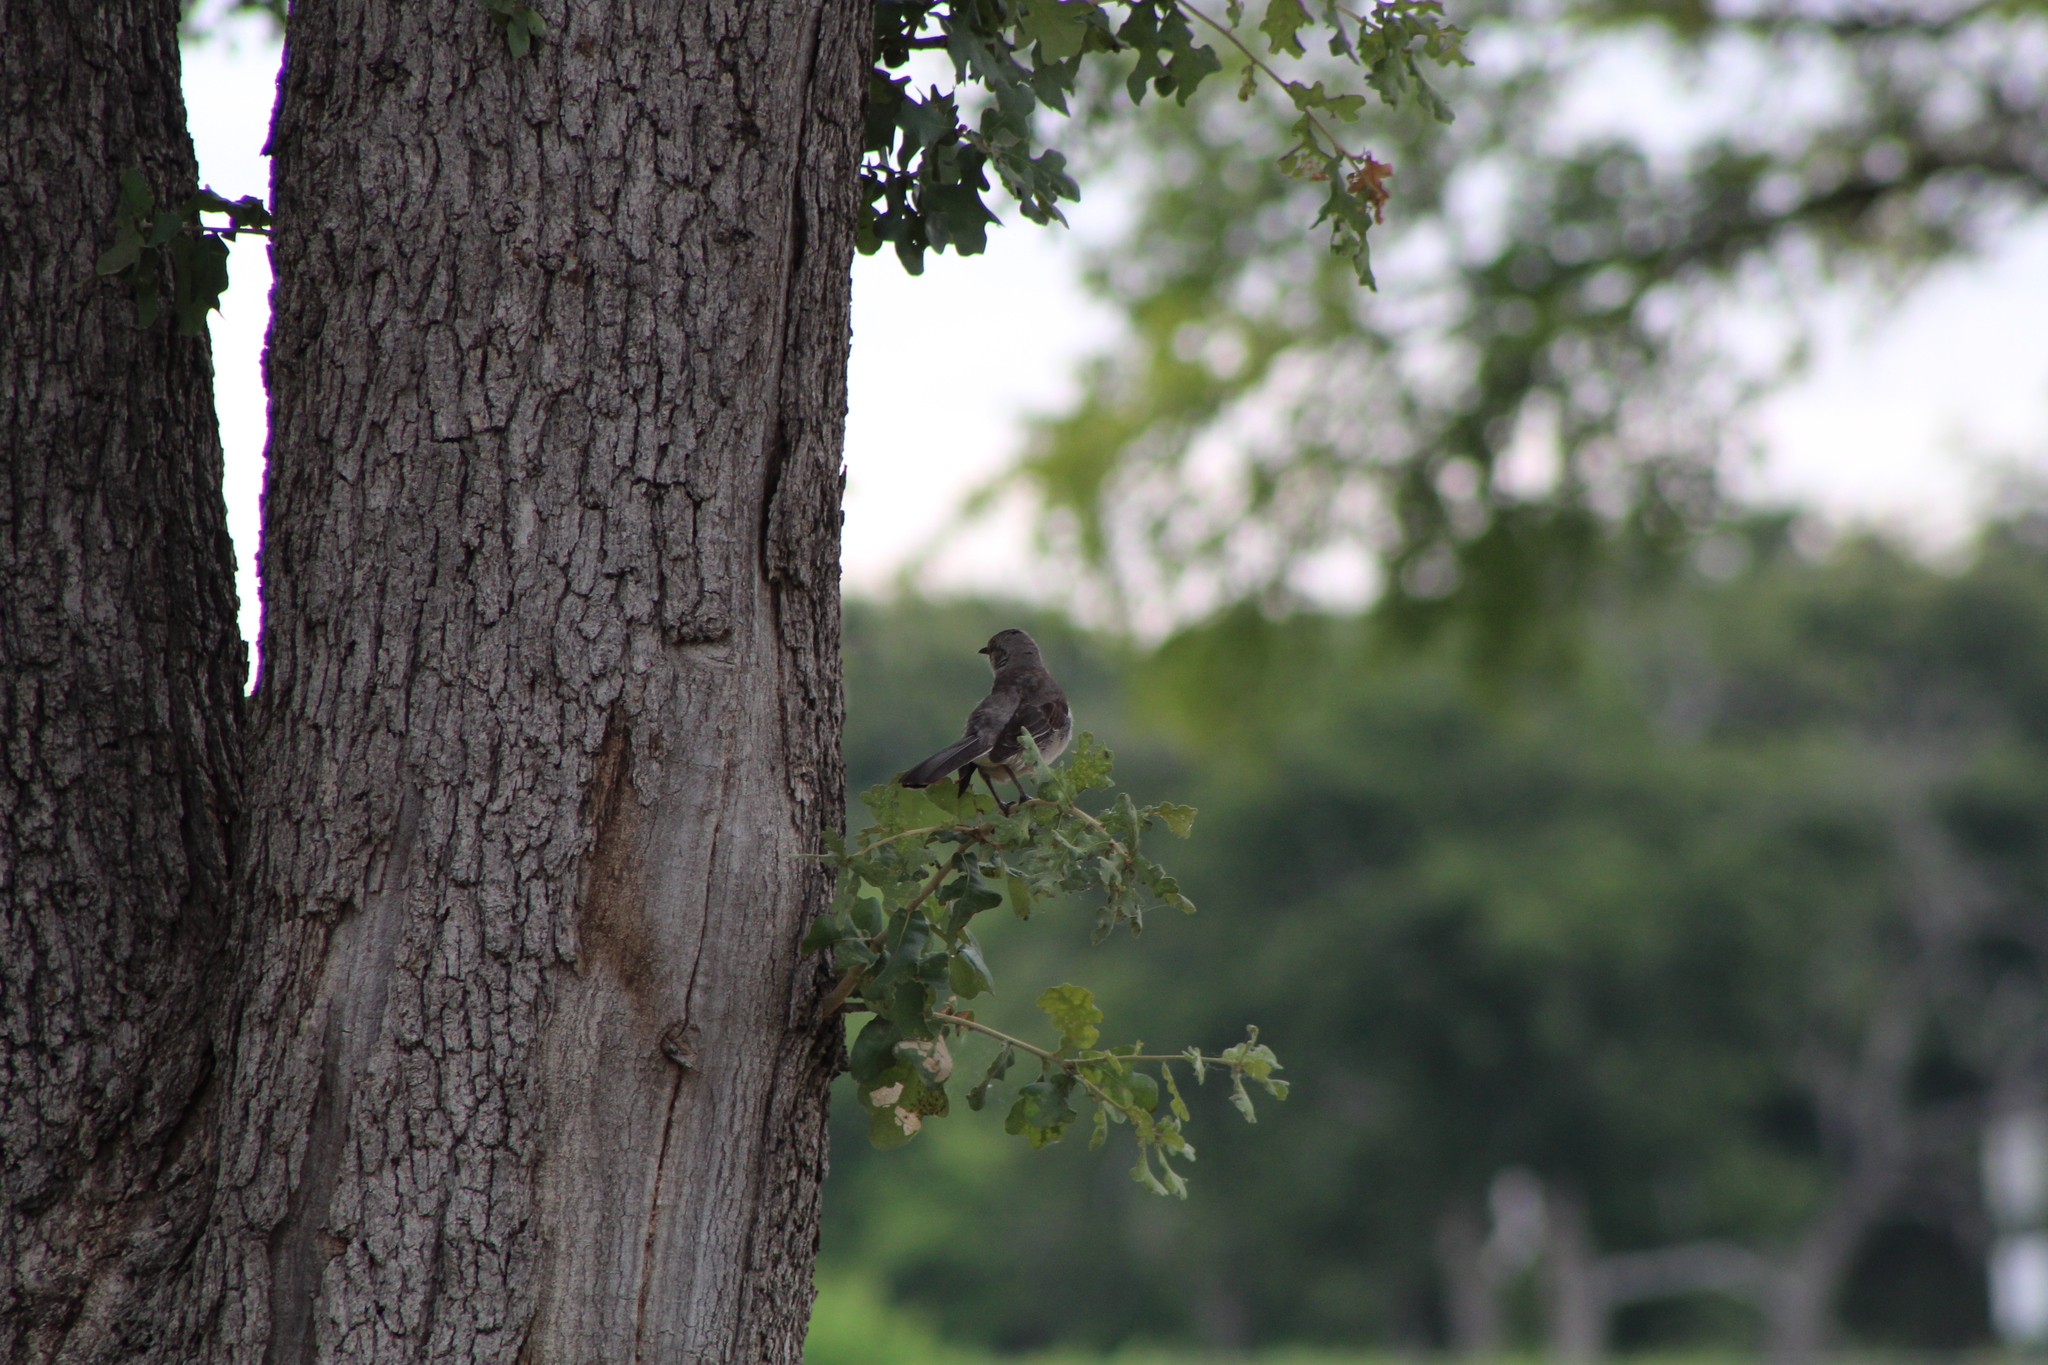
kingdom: Animalia
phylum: Chordata
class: Aves
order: Passeriformes
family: Mimidae
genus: Mimus
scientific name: Mimus polyglottos
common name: Northern mockingbird
